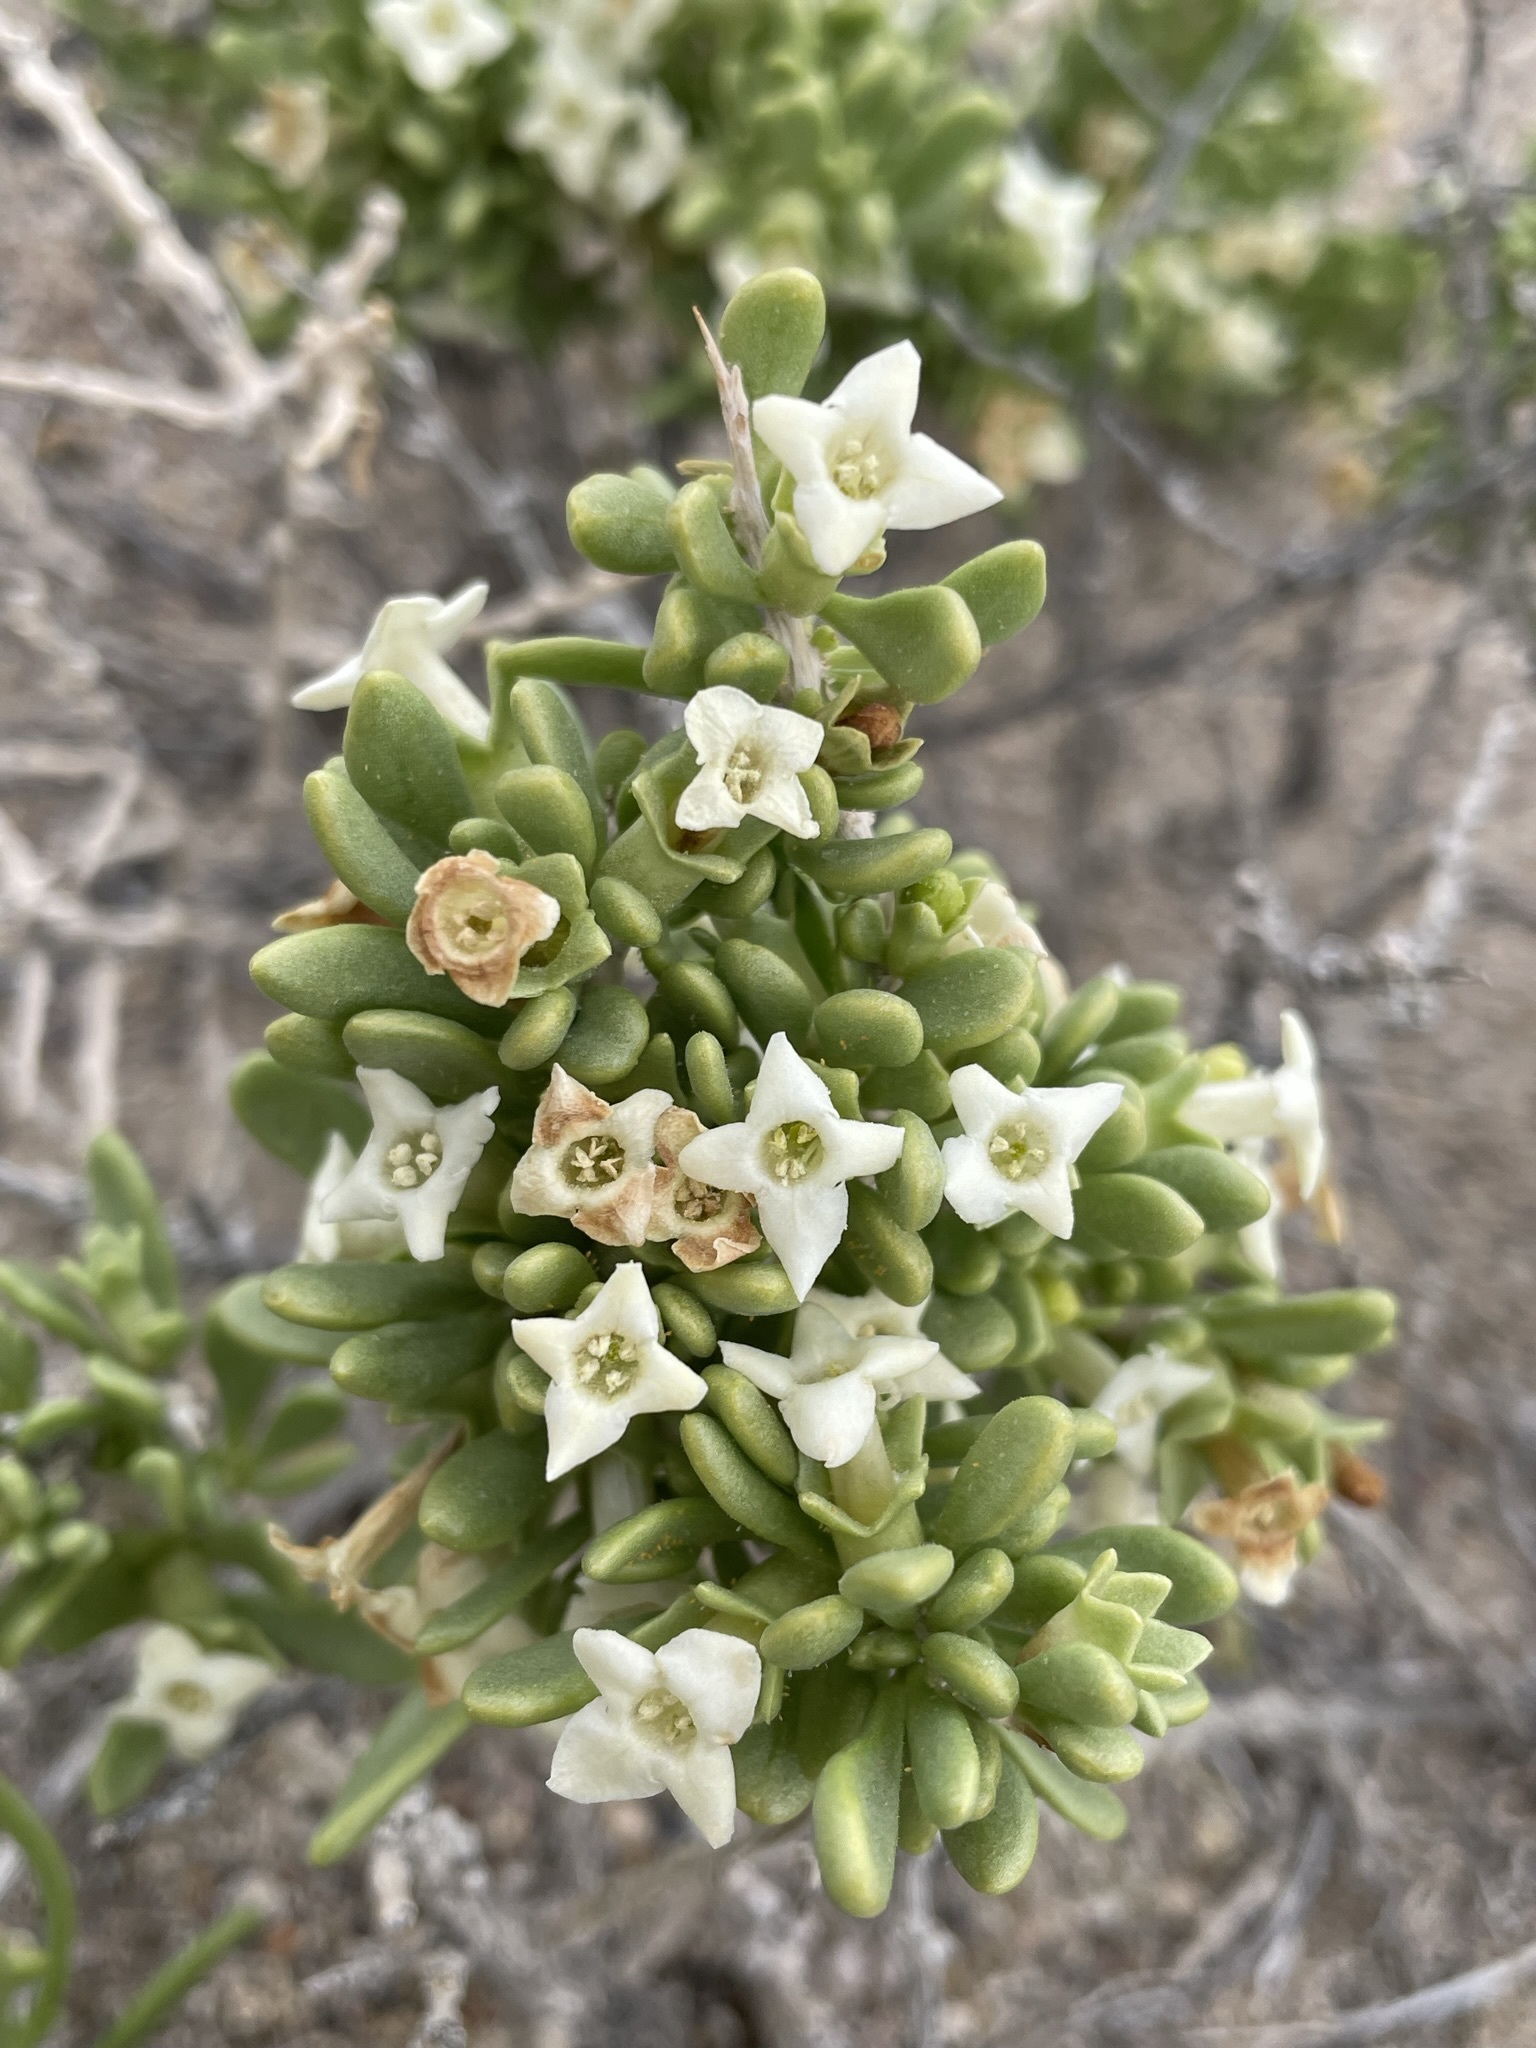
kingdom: Plantae
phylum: Tracheophyta
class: Magnoliopsida
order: Solanales
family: Solanaceae
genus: Lycium
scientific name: Lycium shockleyi
